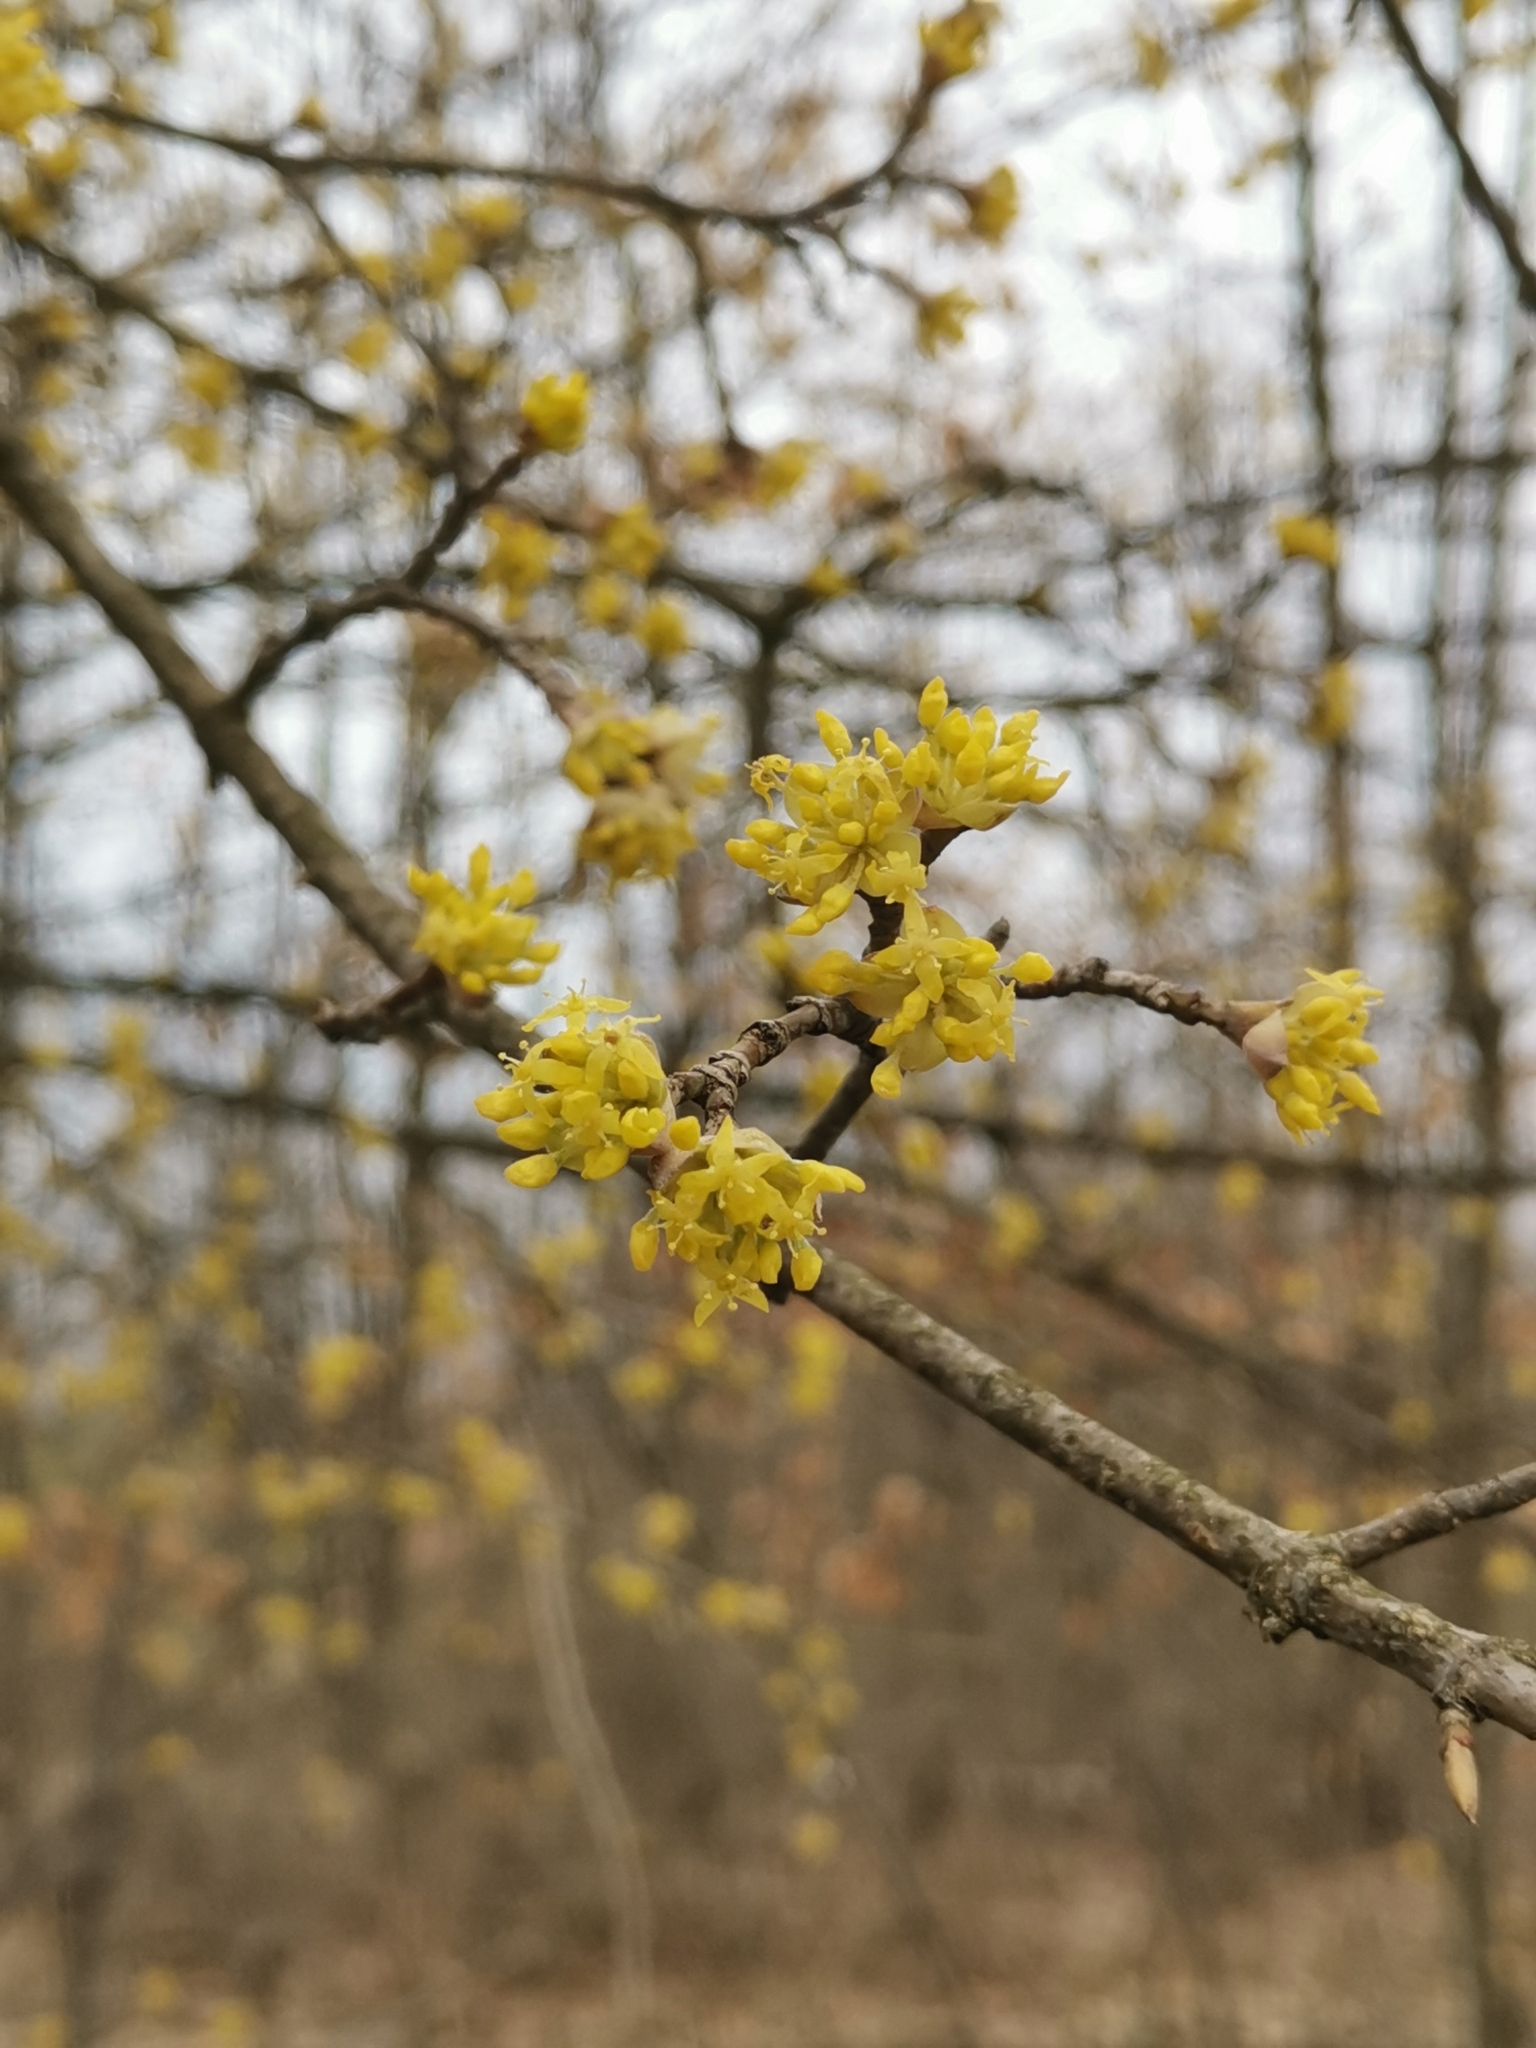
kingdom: Plantae
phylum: Tracheophyta
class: Magnoliopsida
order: Cornales
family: Cornaceae
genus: Cornus
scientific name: Cornus mas
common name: Cornelian-cherry
